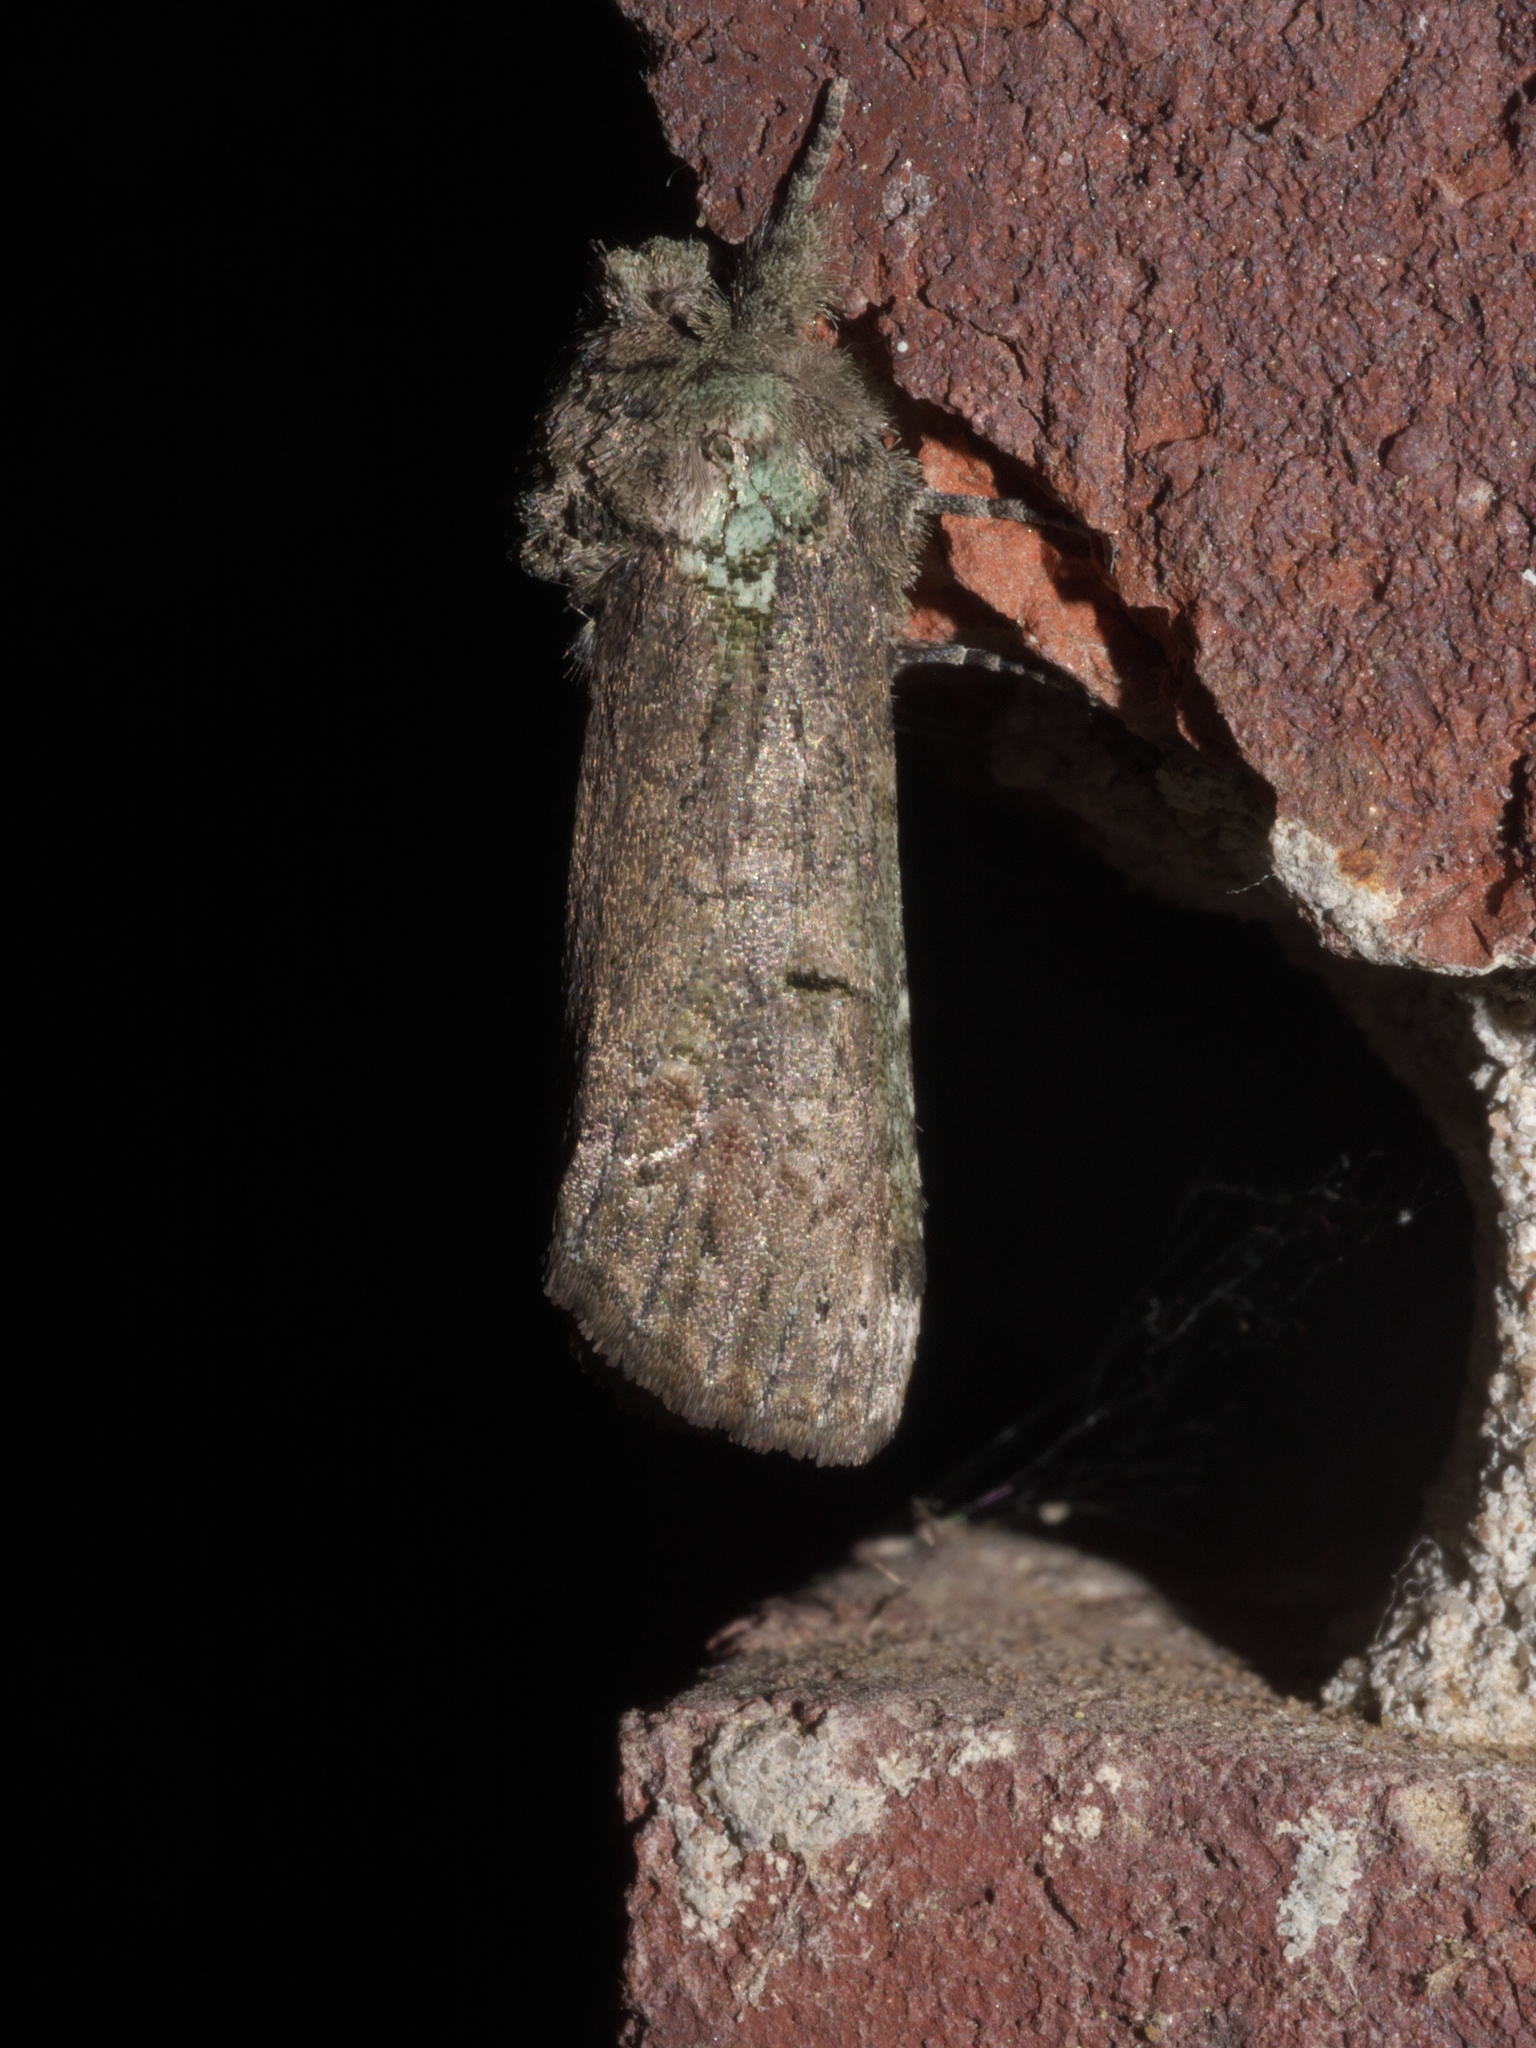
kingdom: Animalia
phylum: Arthropoda
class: Insecta
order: Lepidoptera
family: Notodontidae
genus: Schizura
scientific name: Schizura
